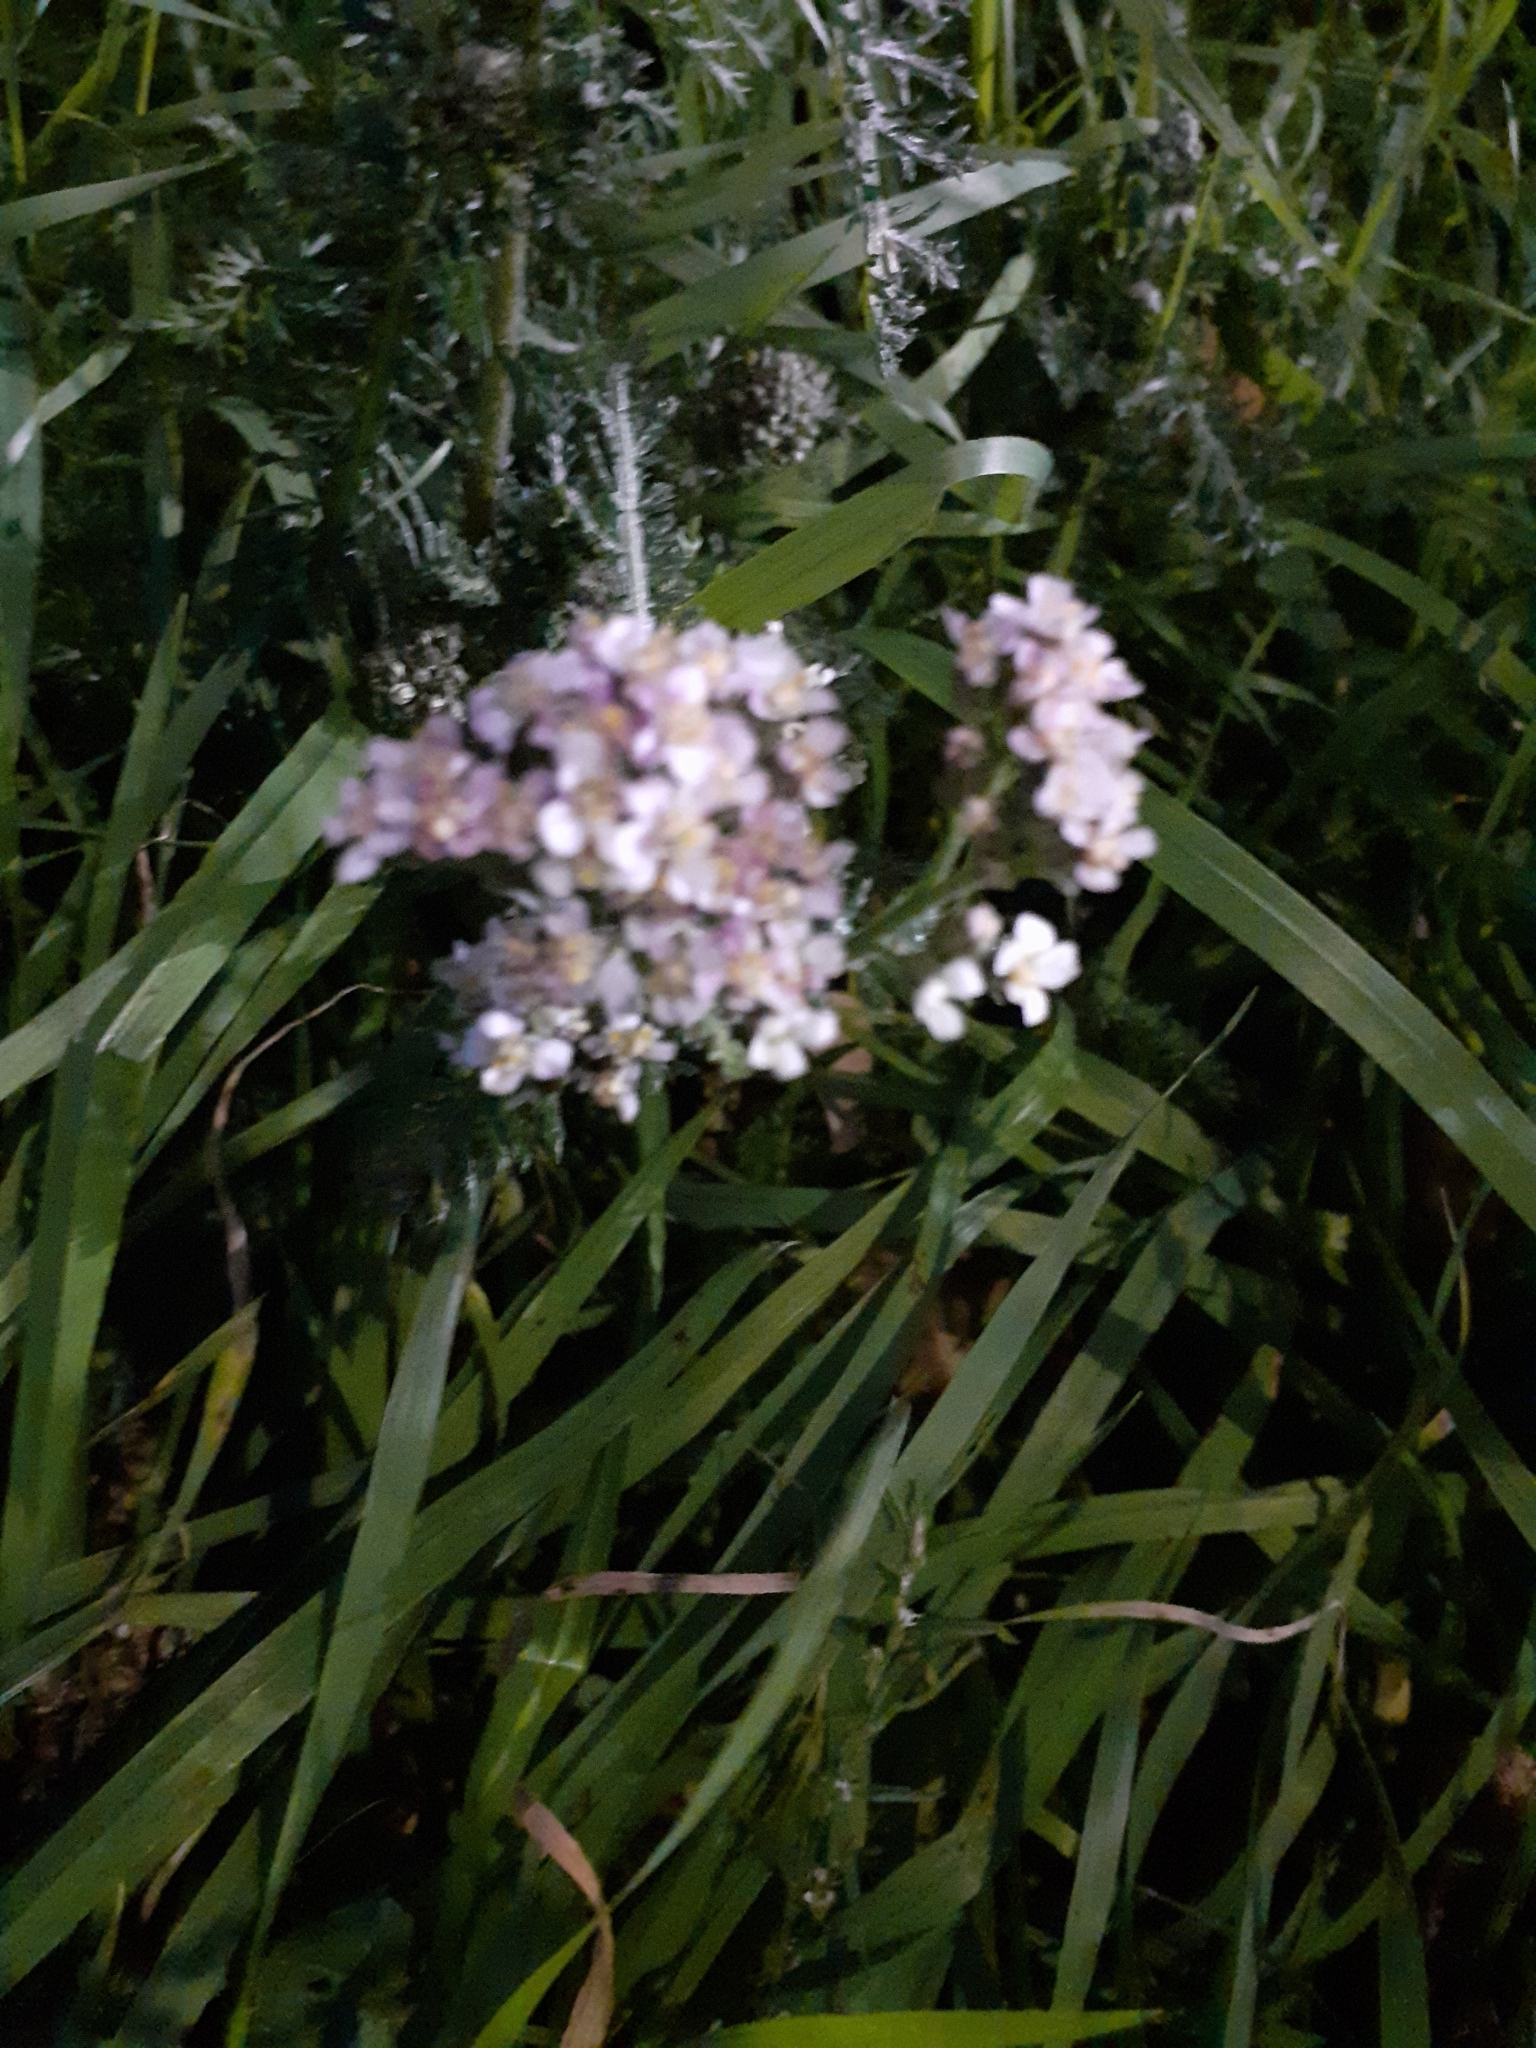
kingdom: Plantae
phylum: Tracheophyta
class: Magnoliopsida
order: Asterales
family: Asteraceae
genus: Achillea
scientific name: Achillea millefolium
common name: Yarrow
